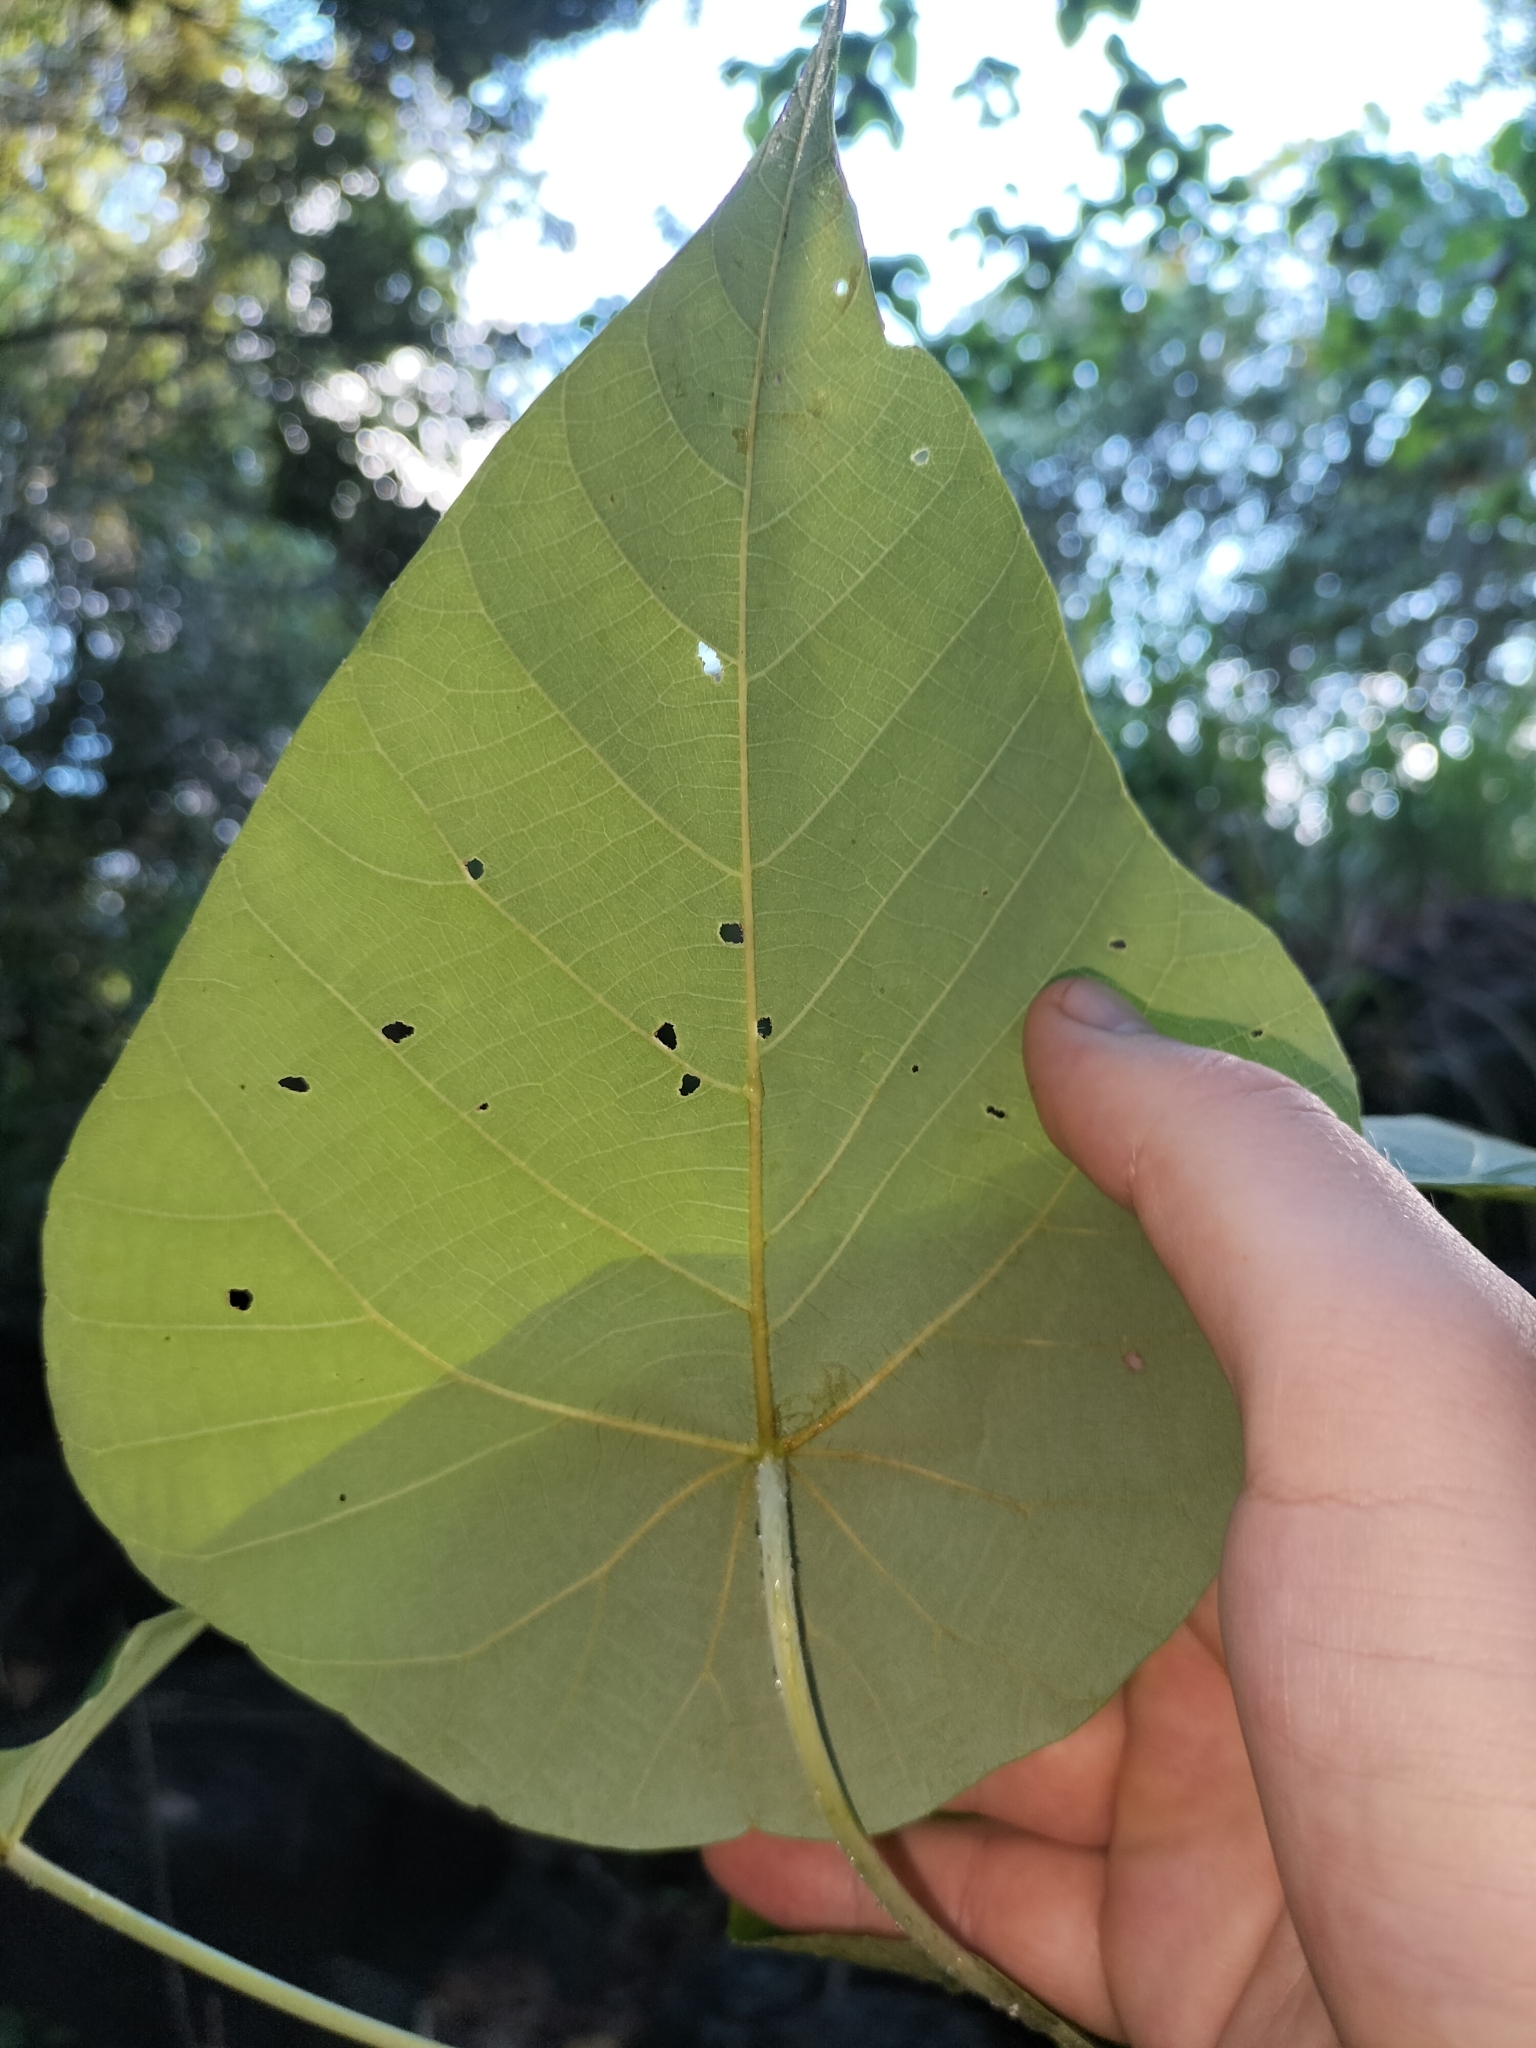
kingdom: Plantae
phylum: Tracheophyta
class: Magnoliopsida
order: Malpighiales
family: Euphorbiaceae
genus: Macaranga
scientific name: Macaranga tanarius
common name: Parasol leaf tree
